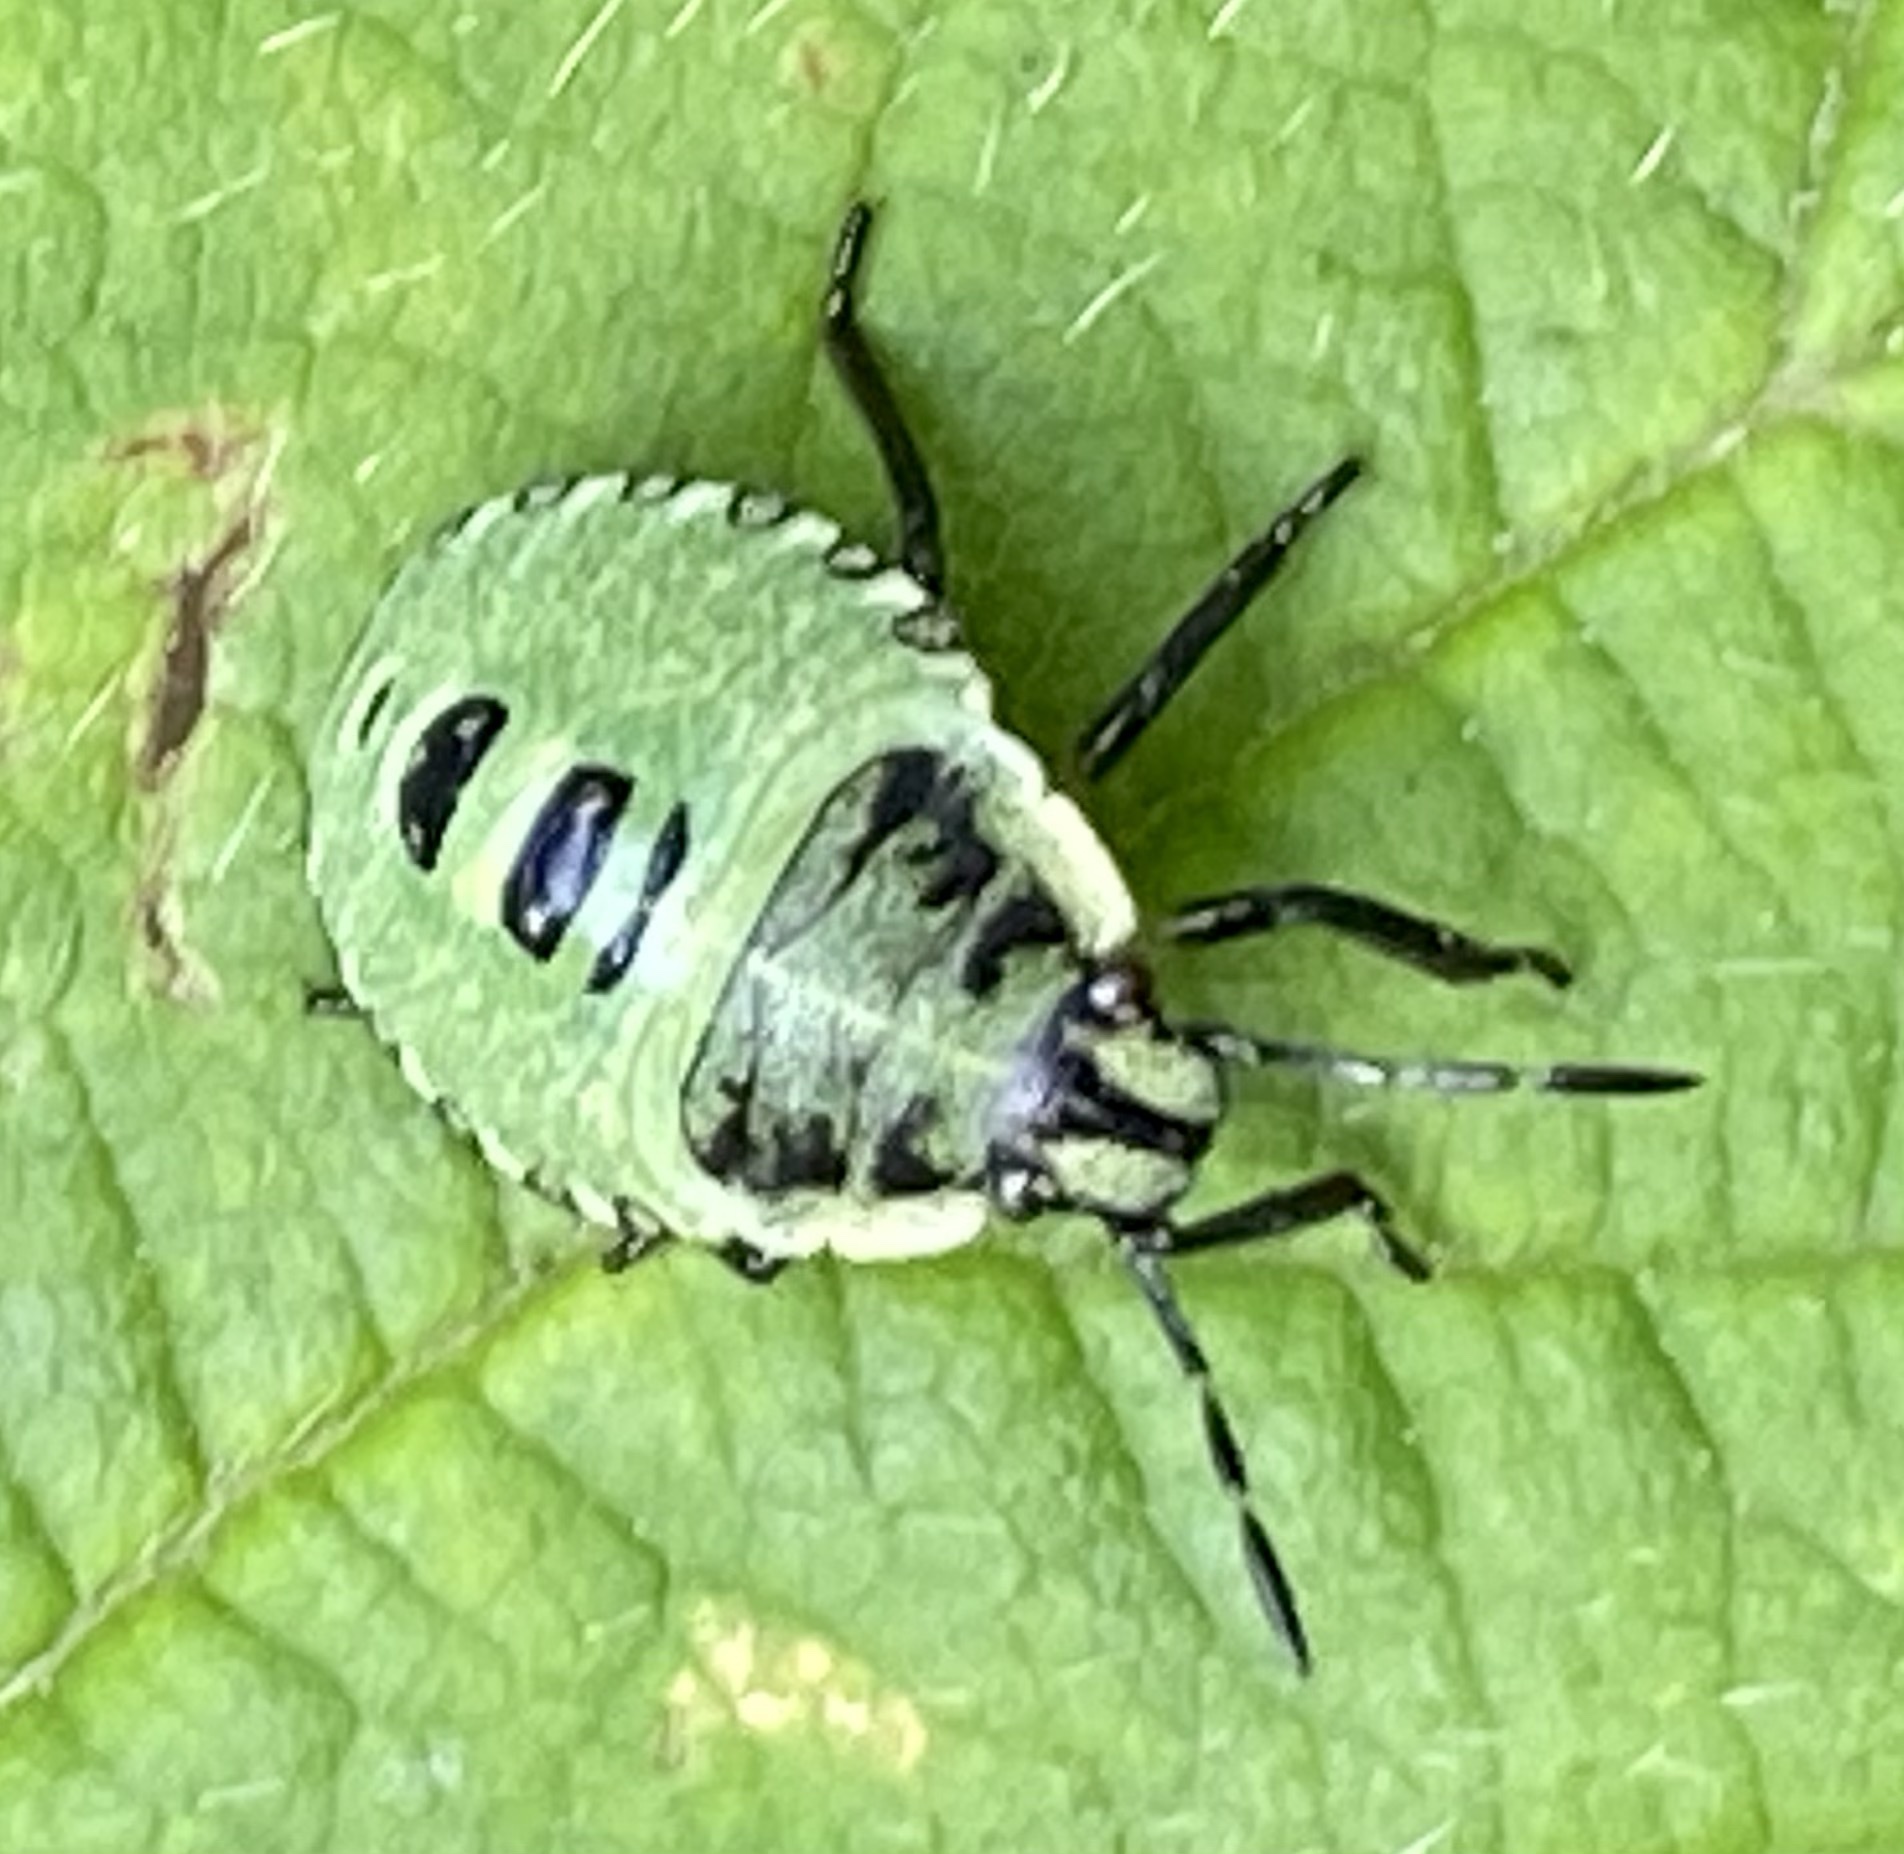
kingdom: Animalia
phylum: Arthropoda
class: Insecta
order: Hemiptera
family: Pentatomidae
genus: Palomena
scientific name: Palomena prasina
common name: Green shieldbug
